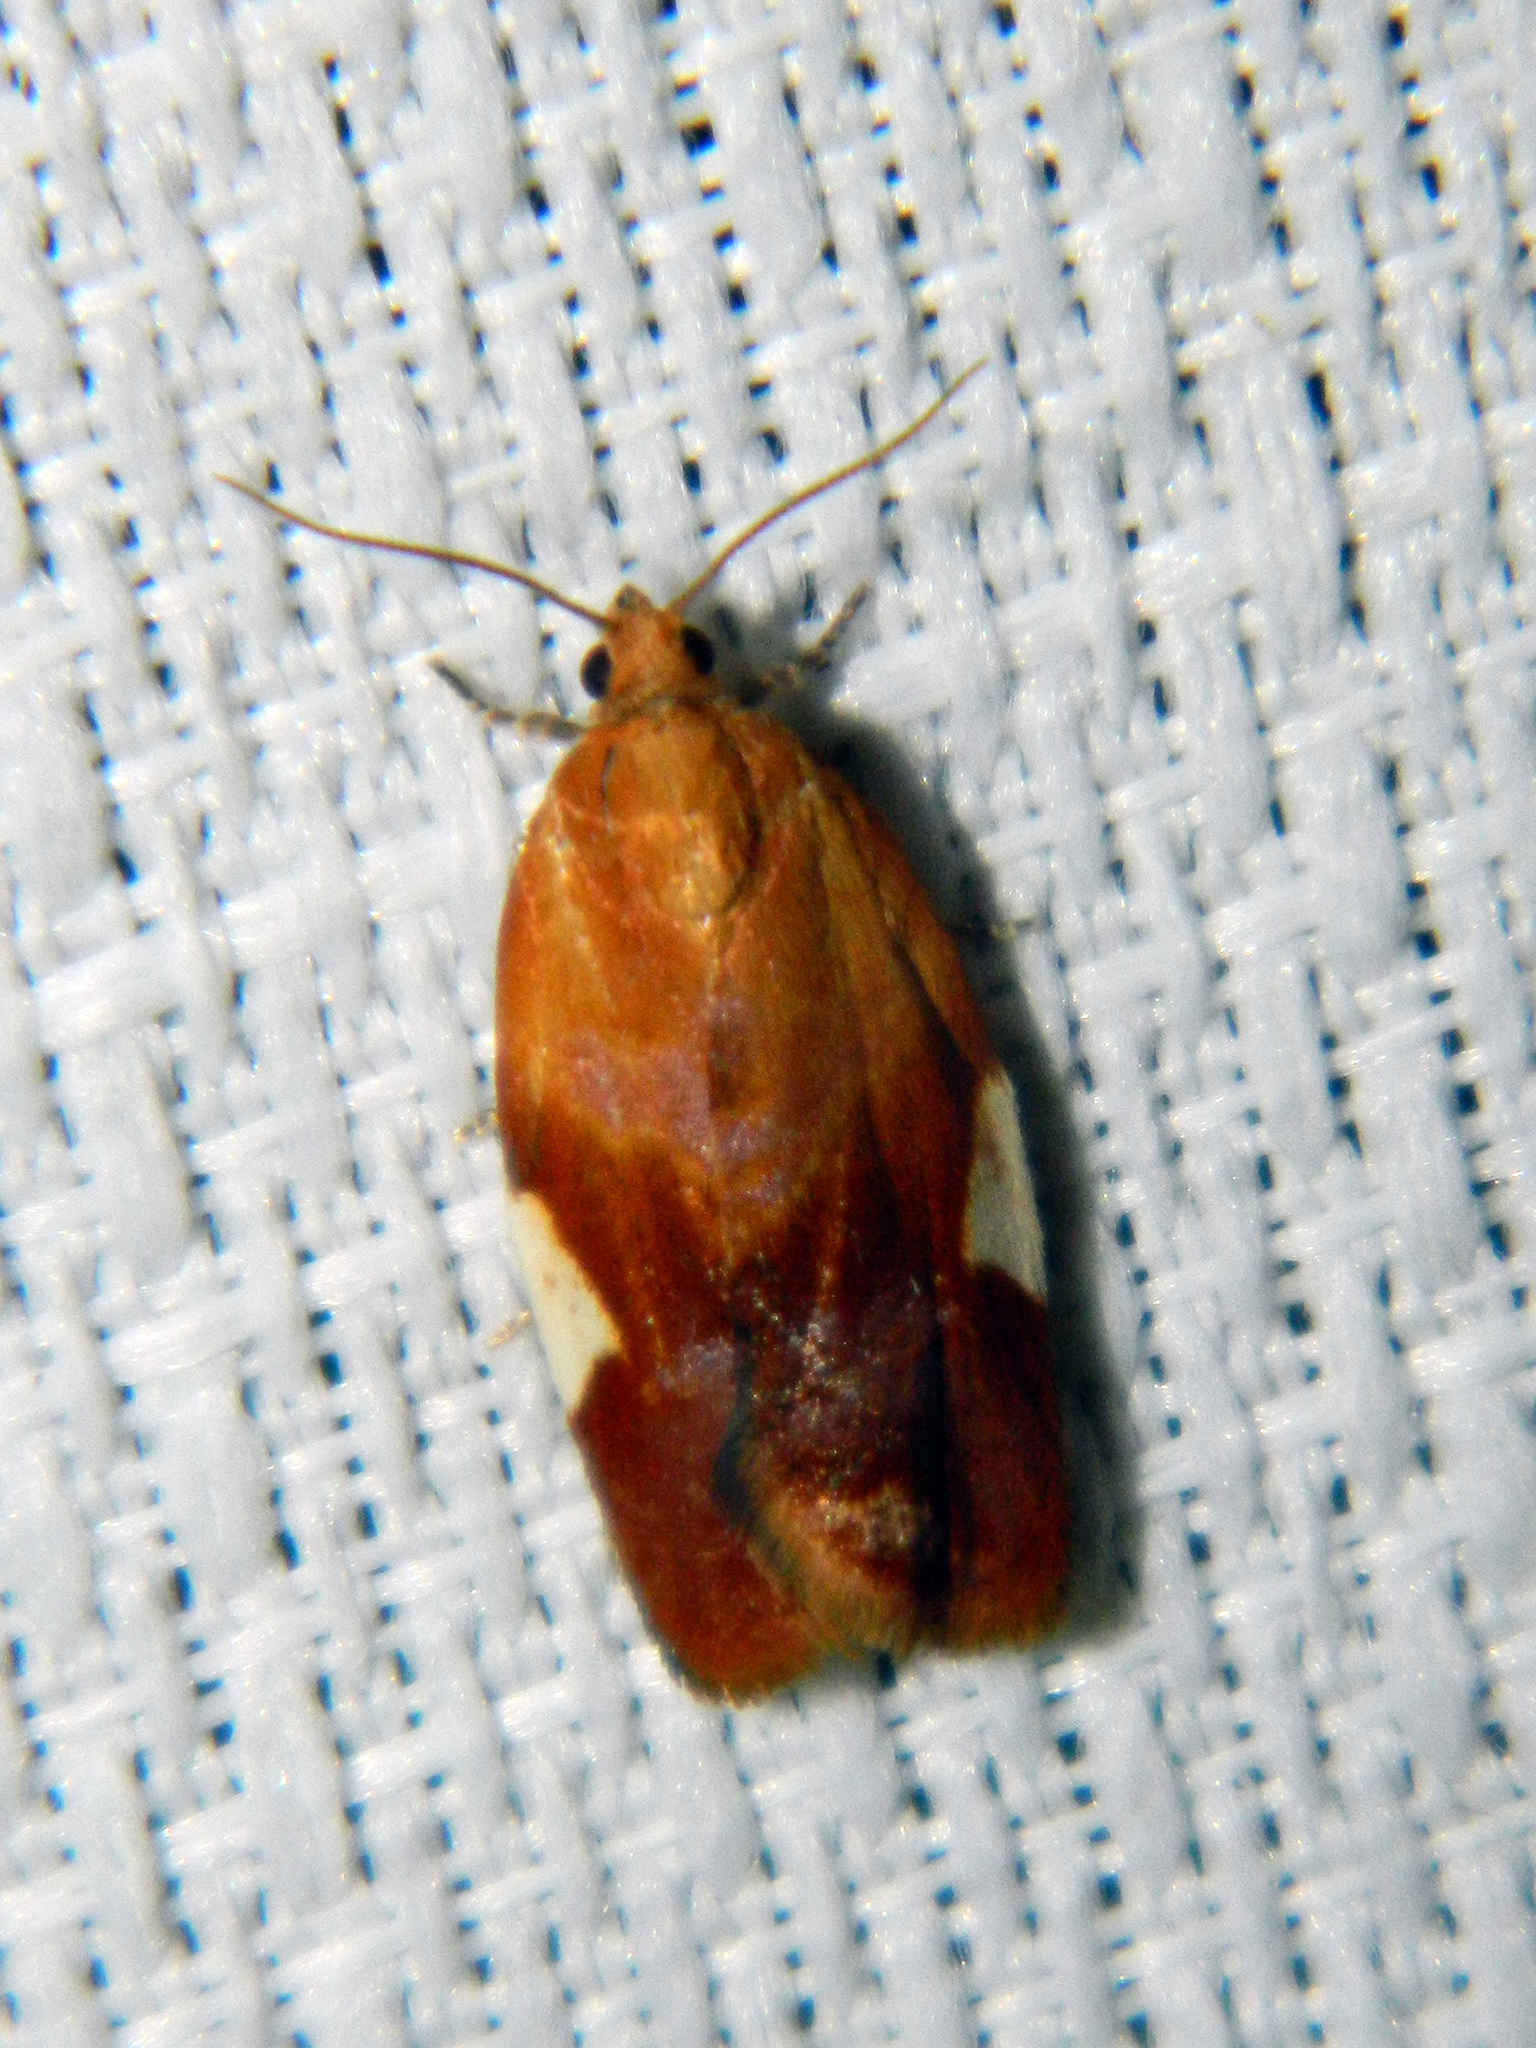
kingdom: Animalia
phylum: Arthropoda
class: Insecta
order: Lepidoptera
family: Tortricidae
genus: Clepsis
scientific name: Clepsis persicana
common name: White triangle tortrix
